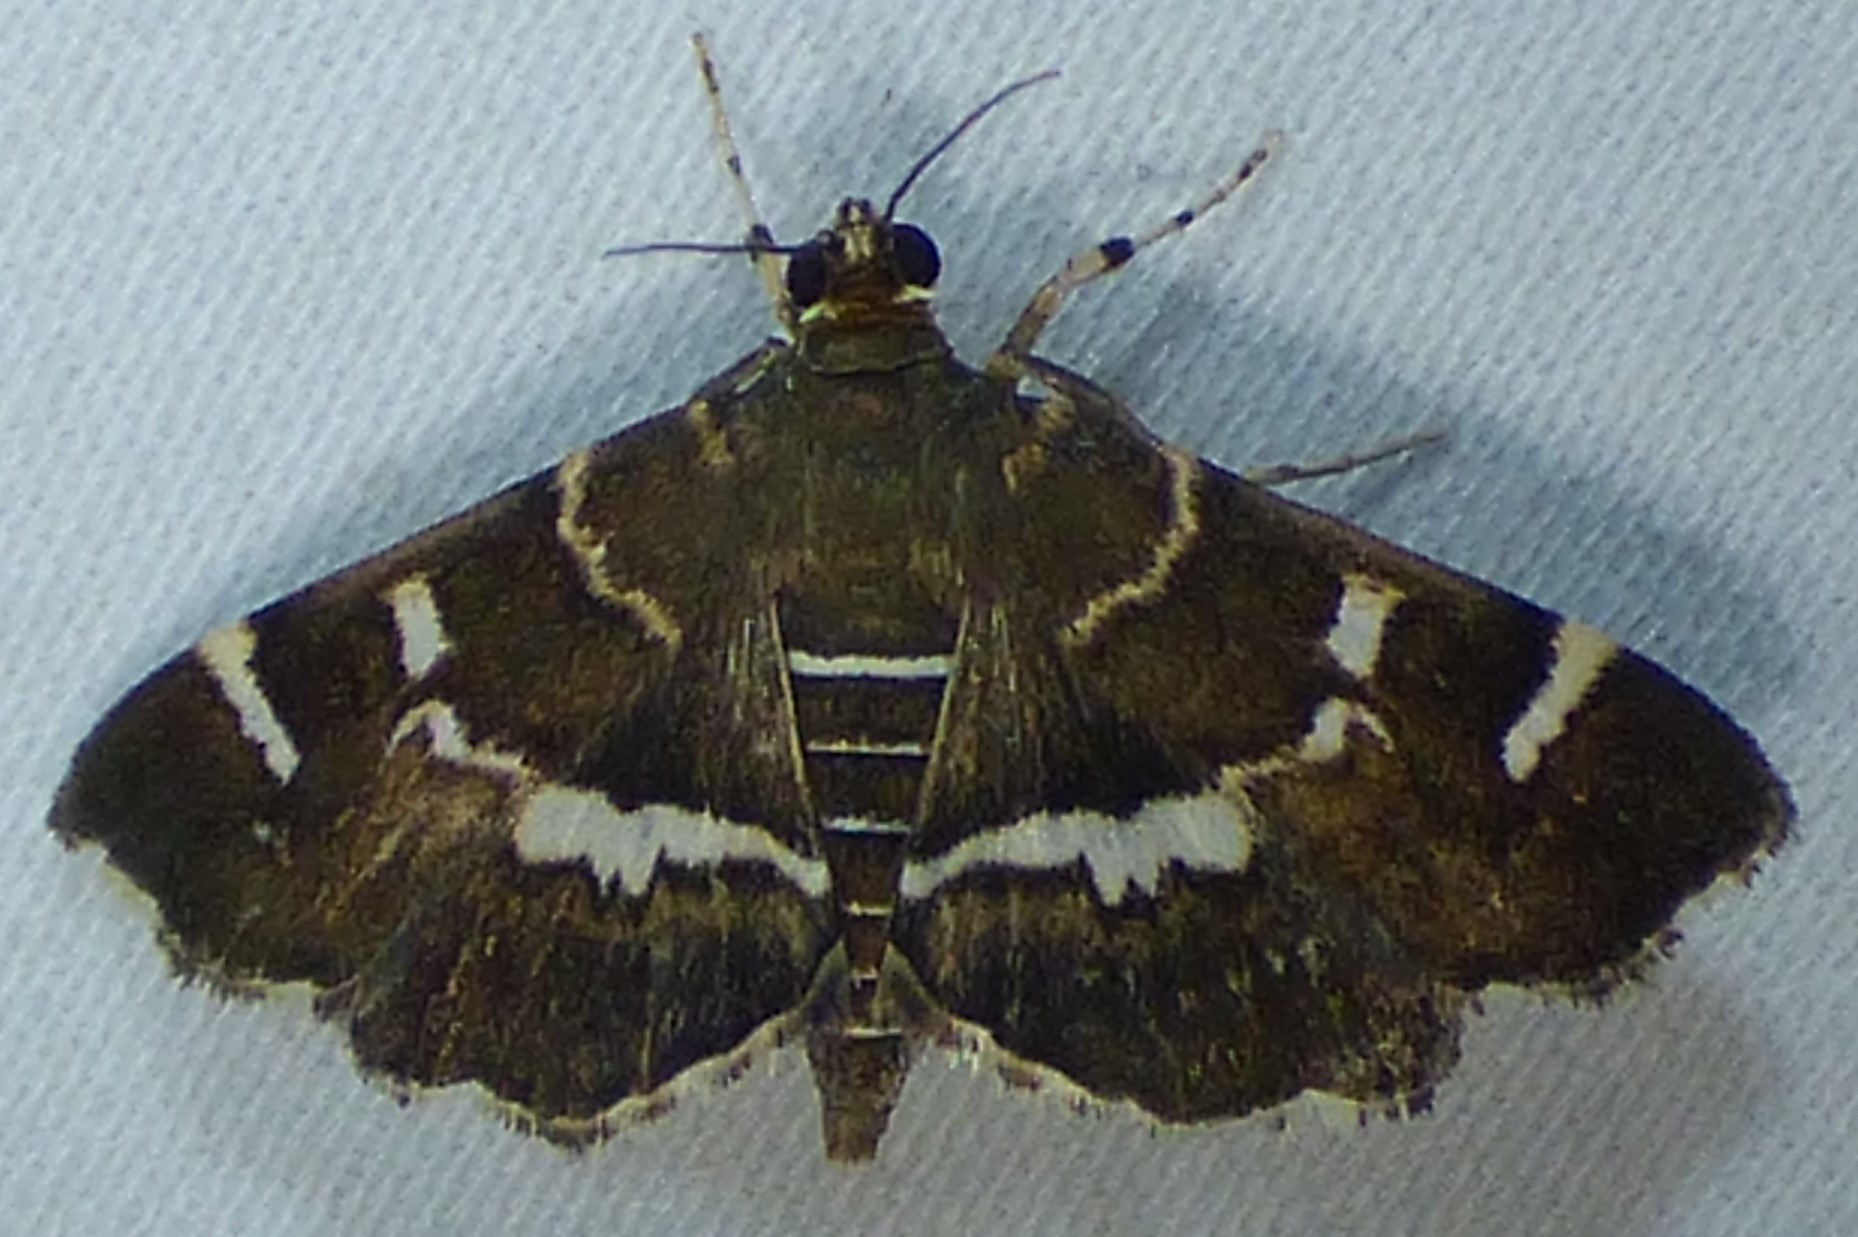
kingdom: Animalia
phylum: Arthropoda
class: Insecta
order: Lepidoptera
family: Crambidae
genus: Hymenia
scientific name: Hymenia perspectalis
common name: Spotted beet webworm
